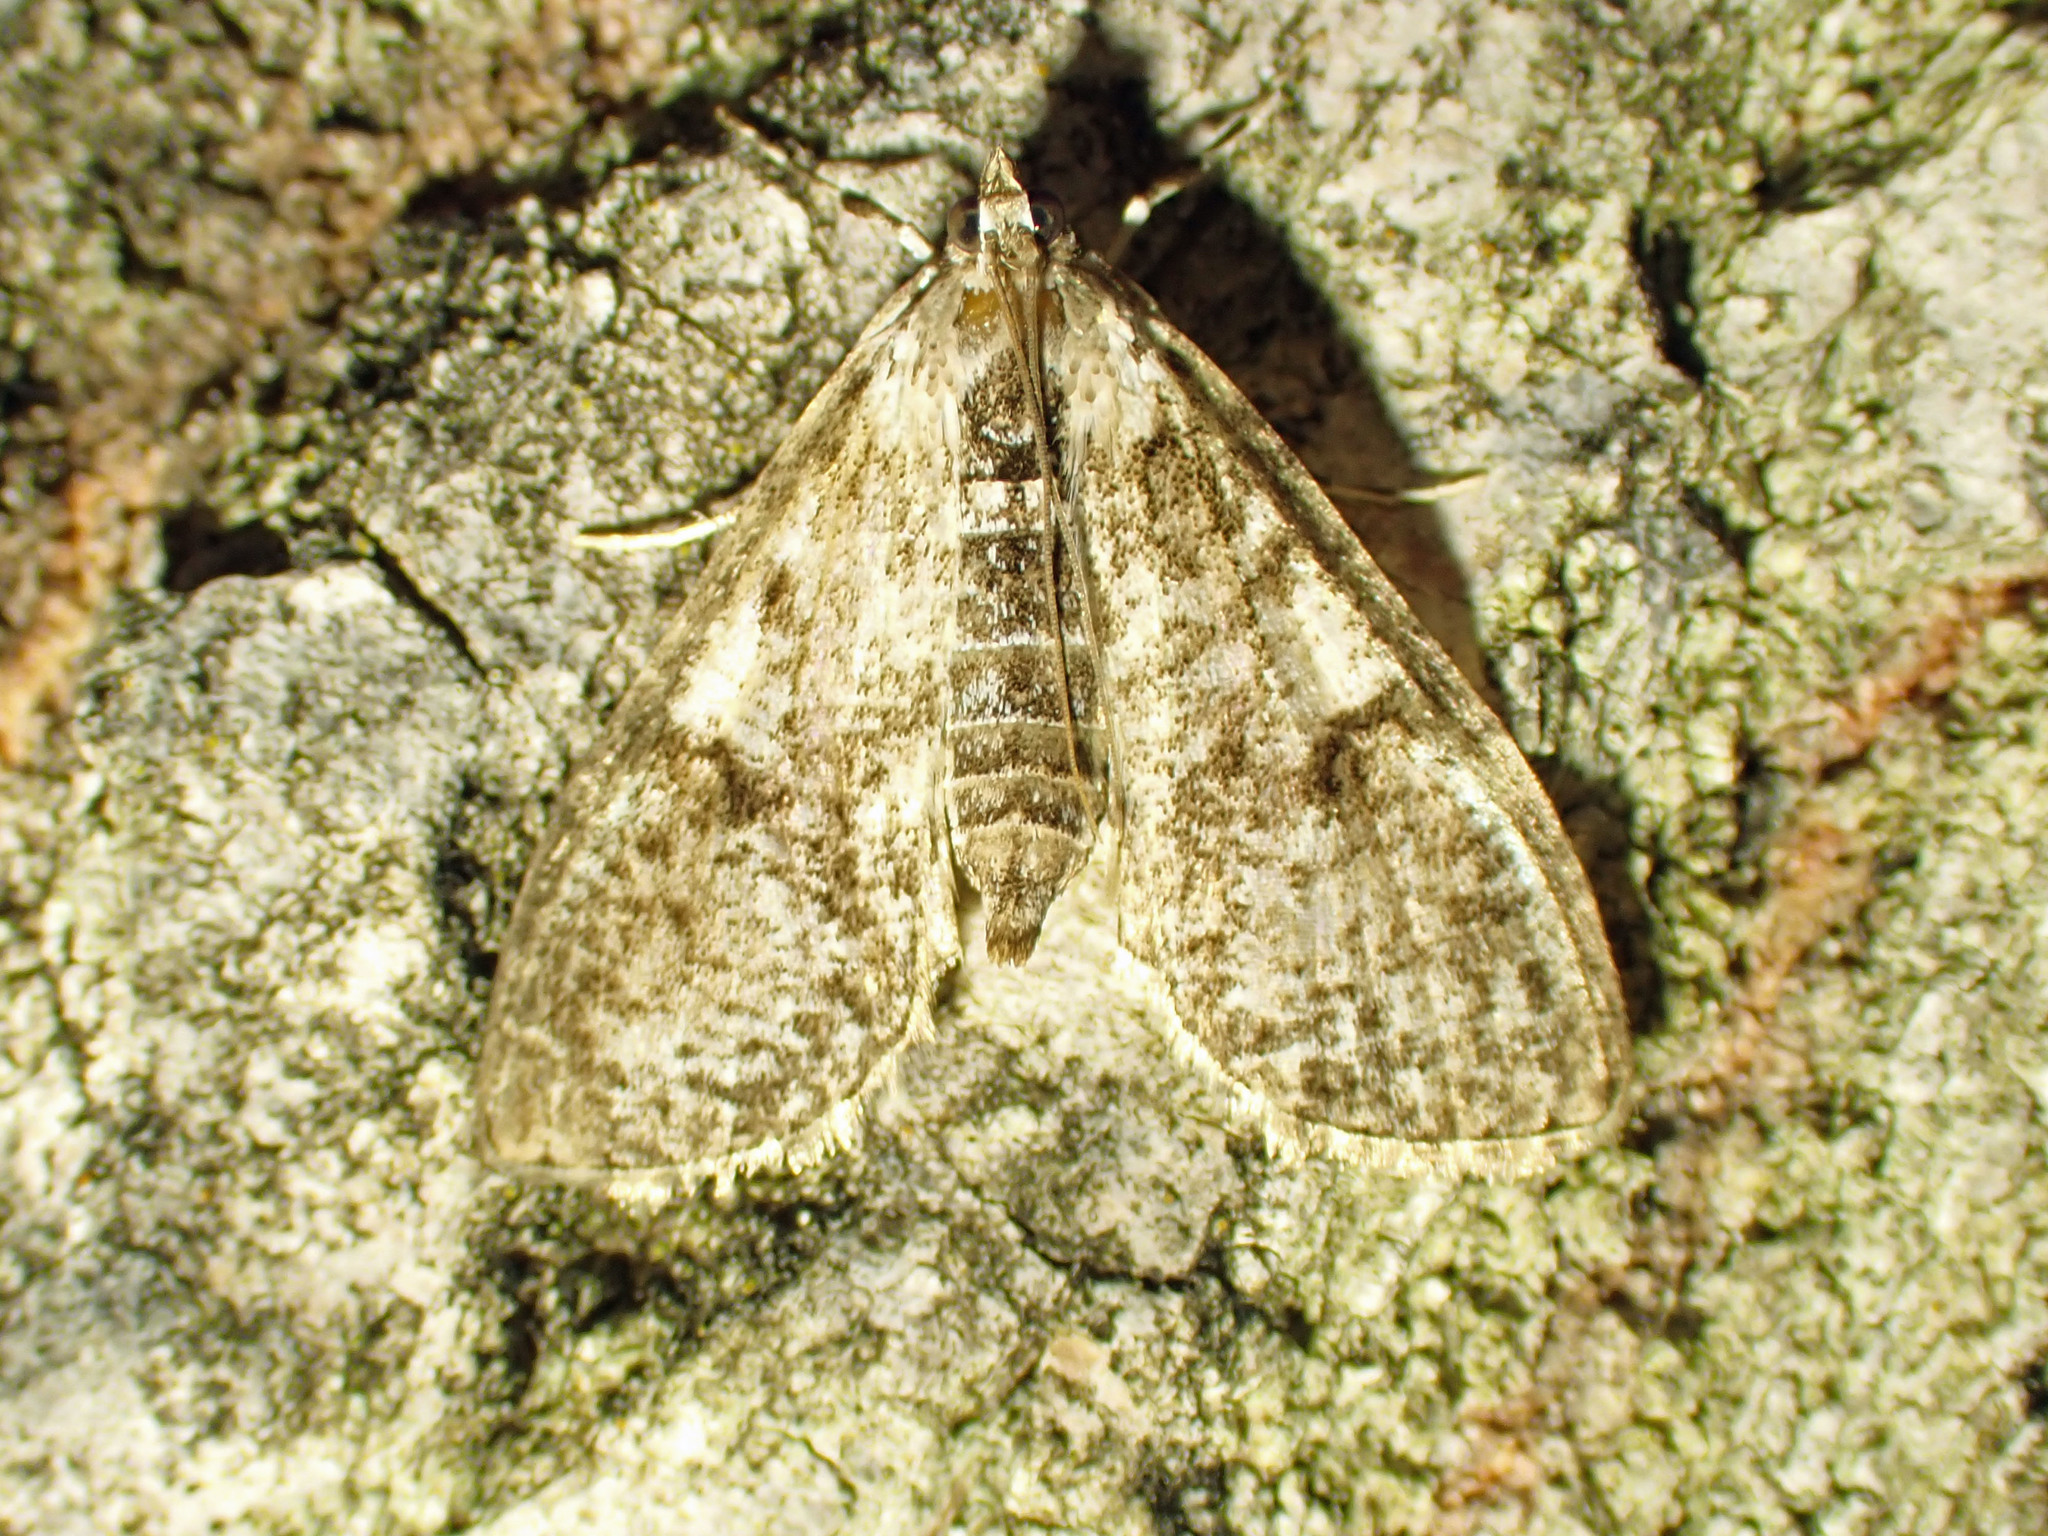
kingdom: Animalia
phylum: Arthropoda
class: Insecta
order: Lepidoptera
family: Crambidae
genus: Palpita
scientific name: Palpita magniferalis
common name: Splendid palpita moth
